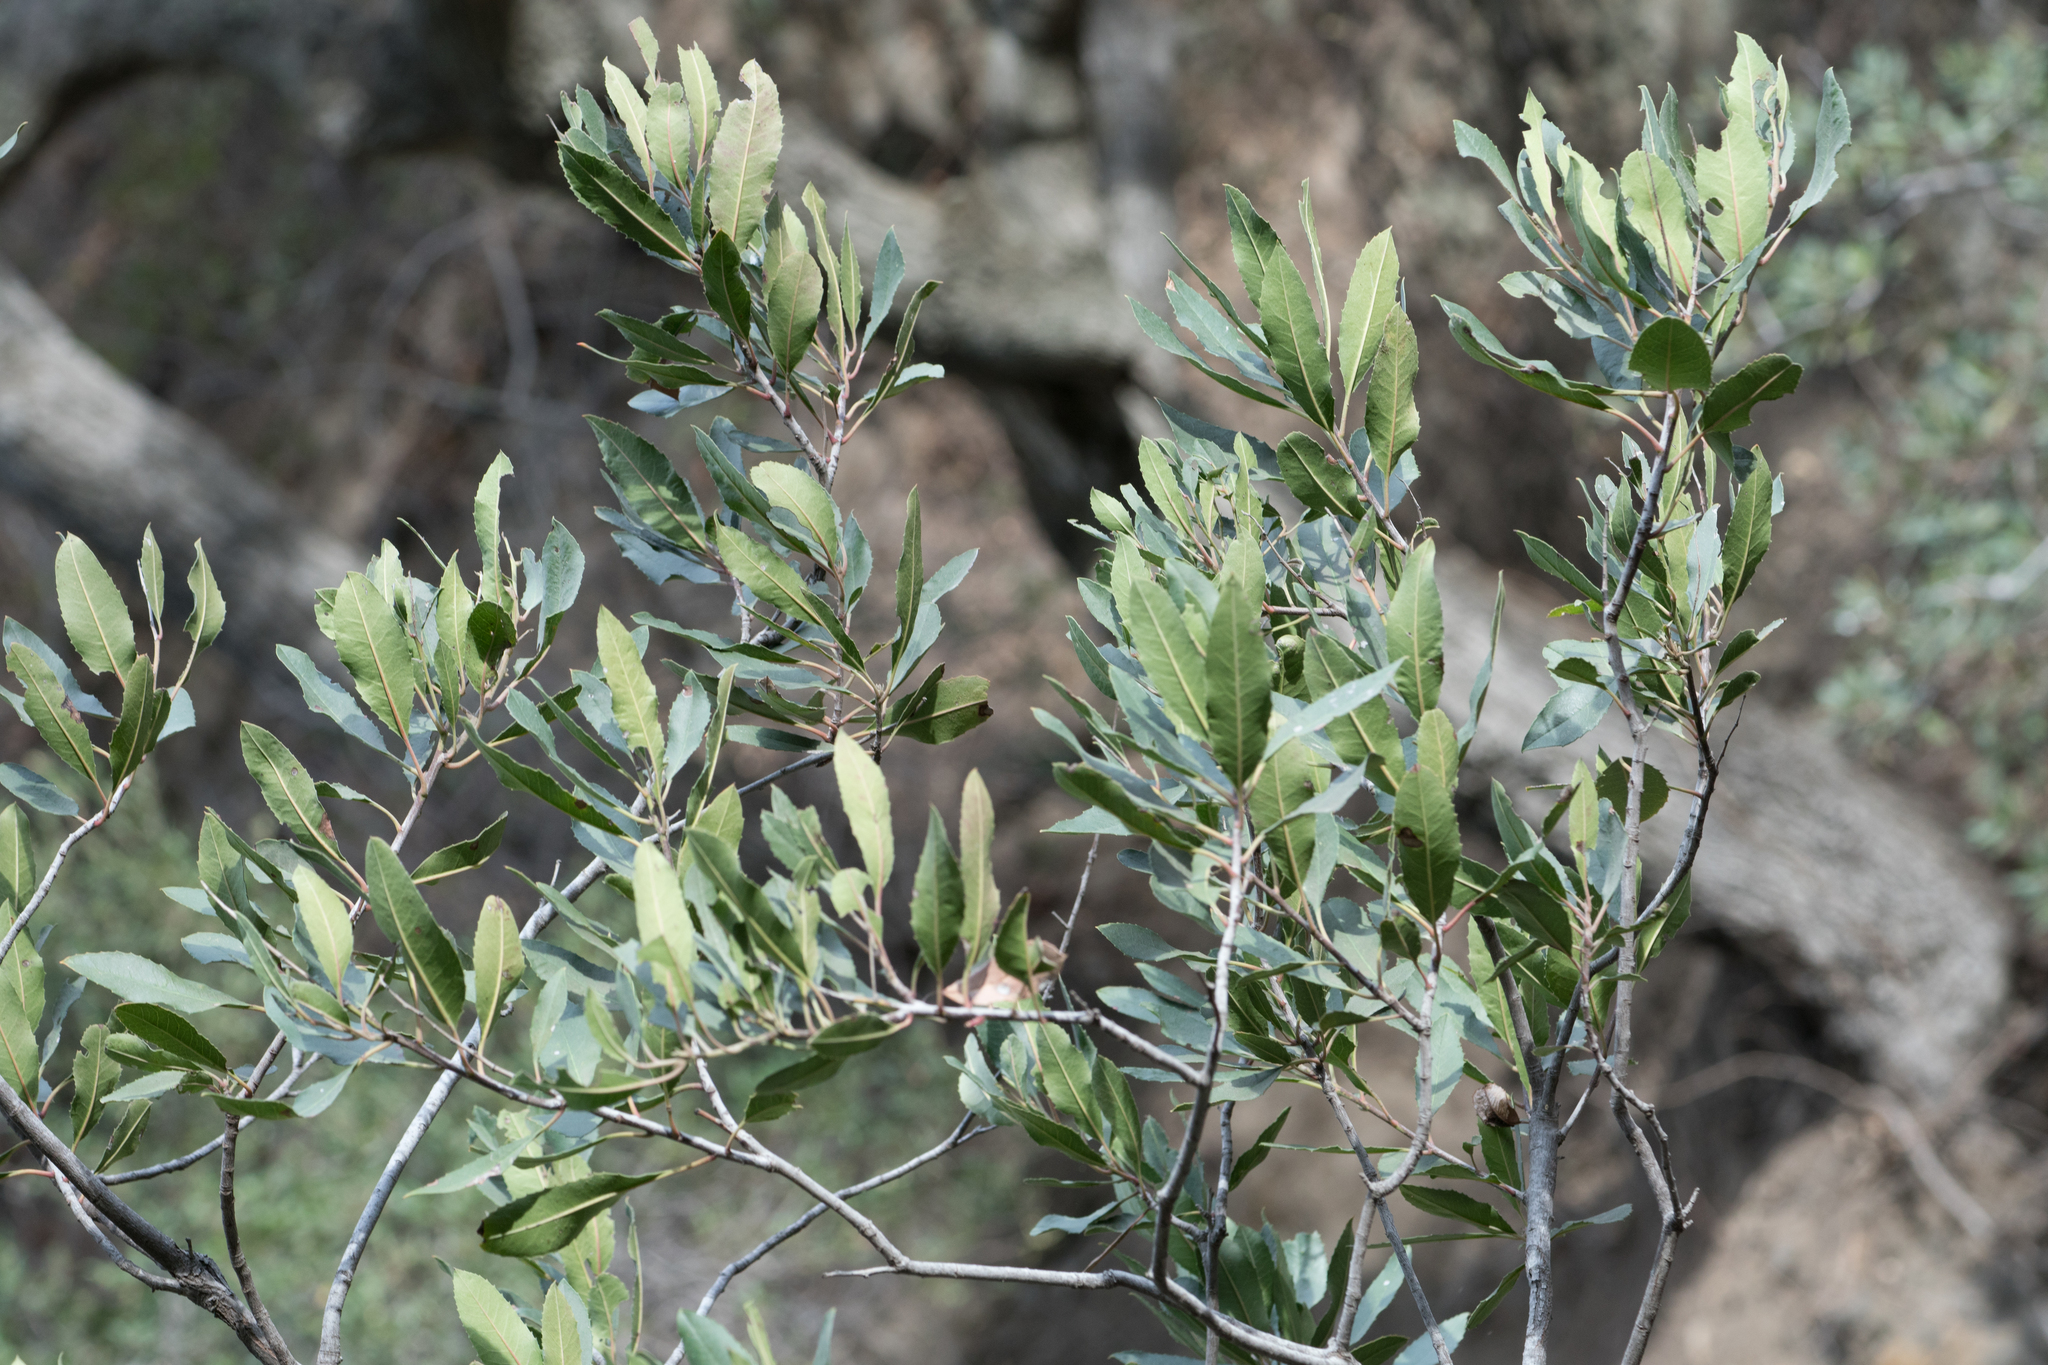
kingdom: Plantae
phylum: Tracheophyta
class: Magnoliopsida
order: Rosales
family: Rosaceae
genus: Heteromeles
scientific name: Heteromeles arbutifolia
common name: California-holly
